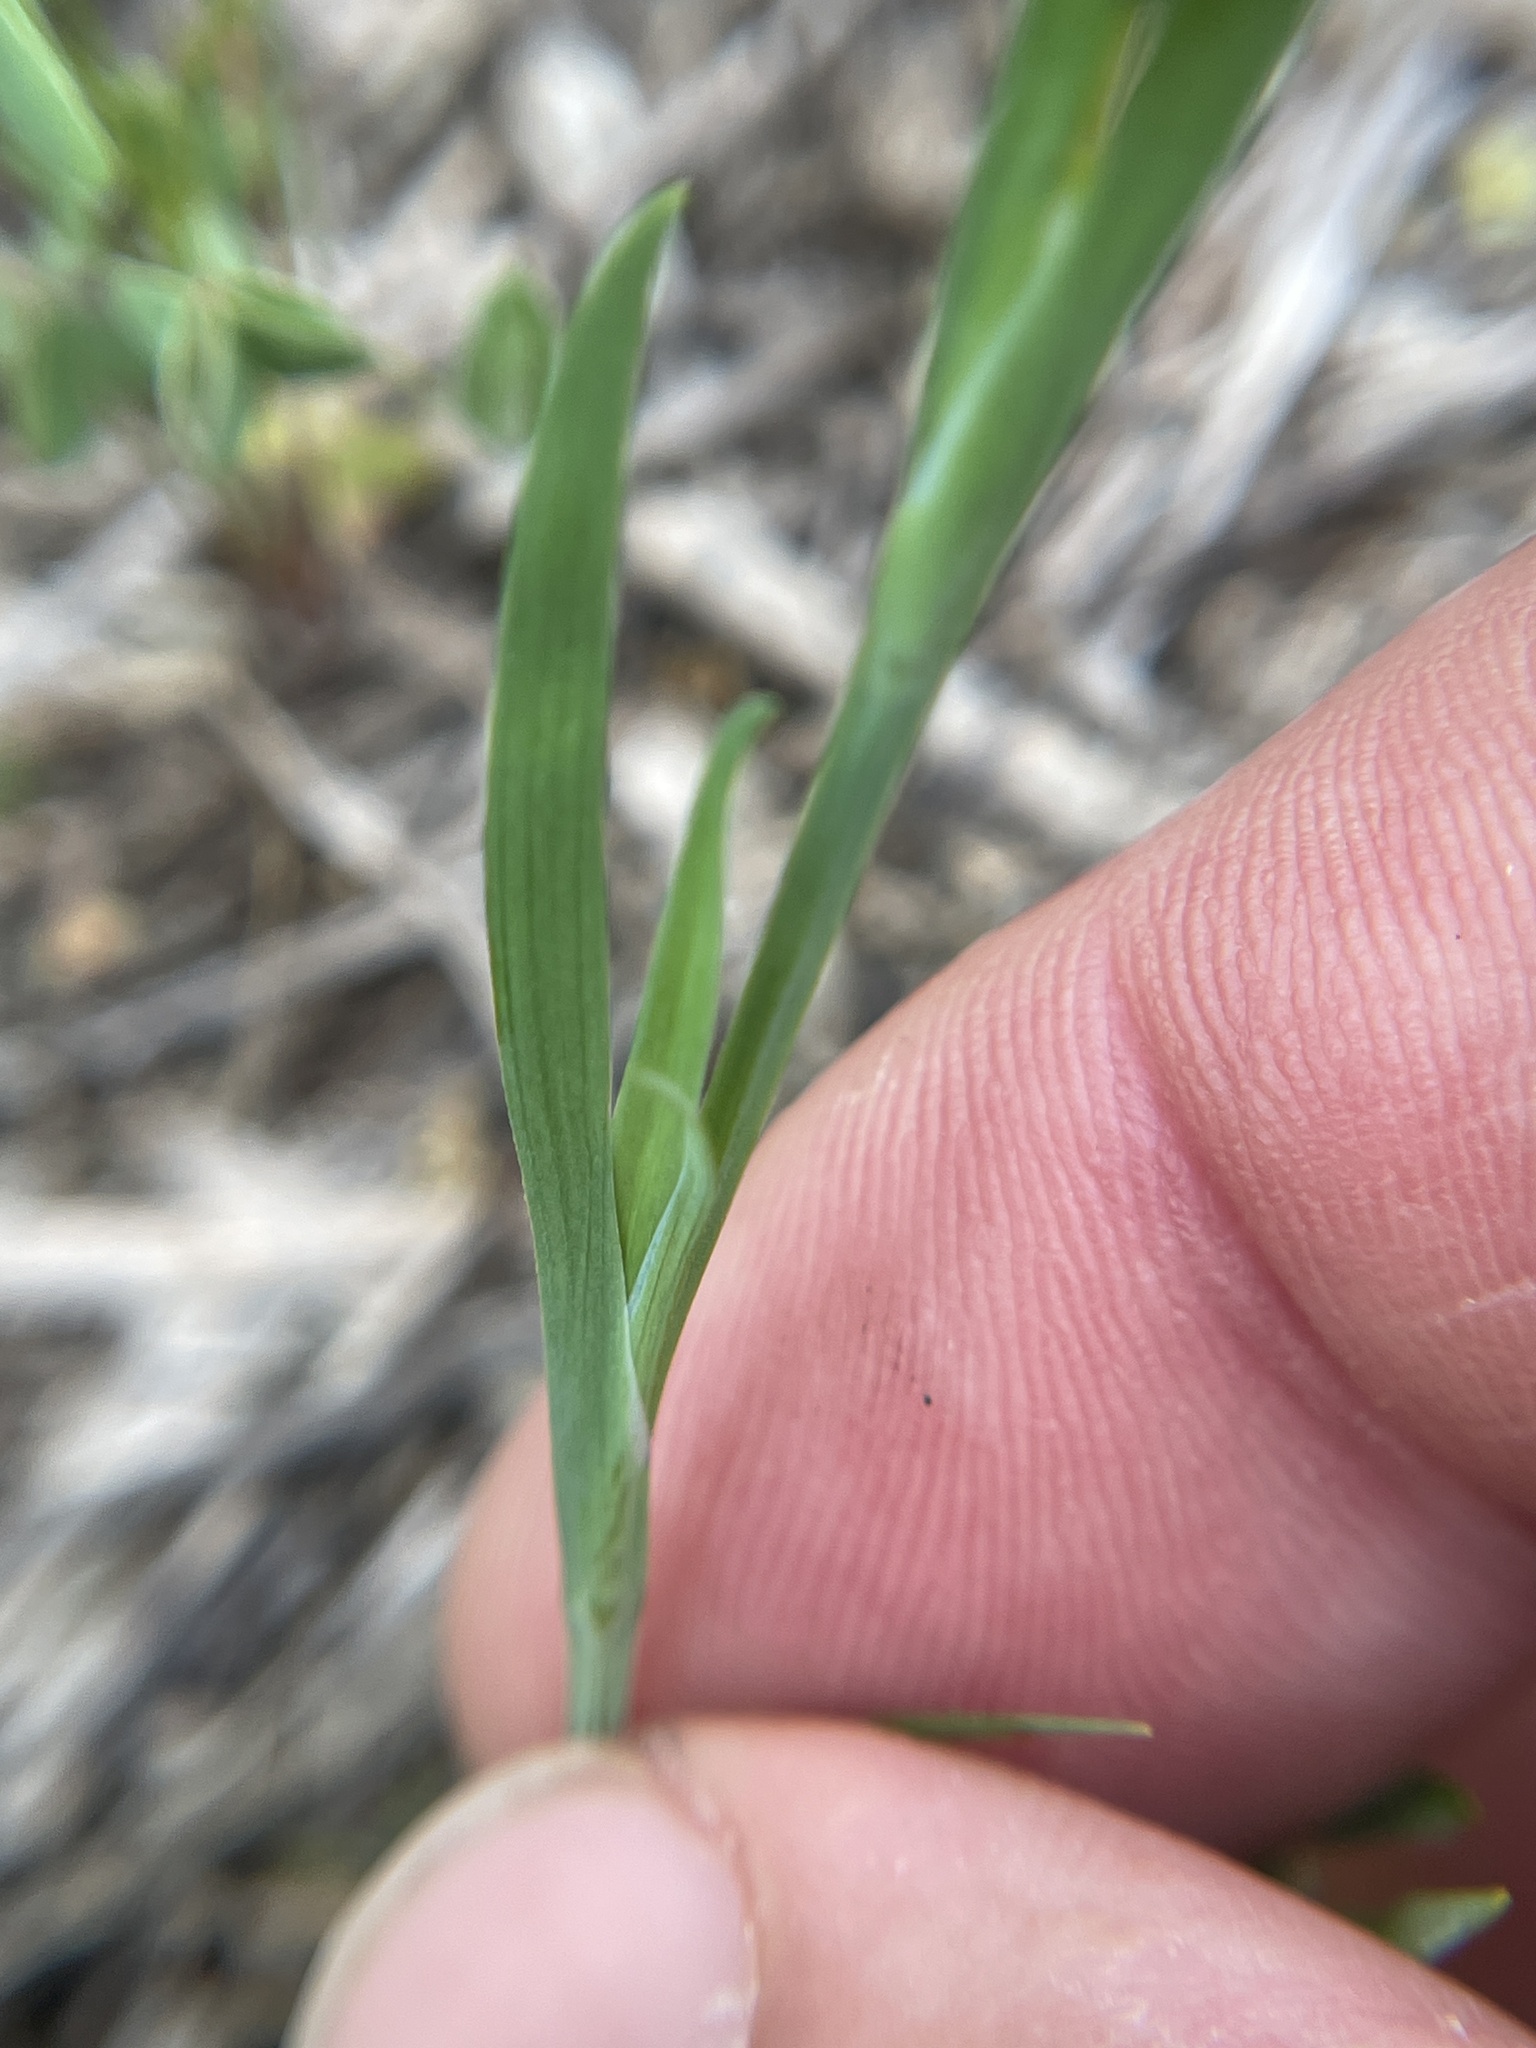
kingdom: Plantae
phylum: Tracheophyta
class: Liliopsida
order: Asparagales
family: Iridaceae
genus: Sisyrinchium
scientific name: Sisyrinchium minus
